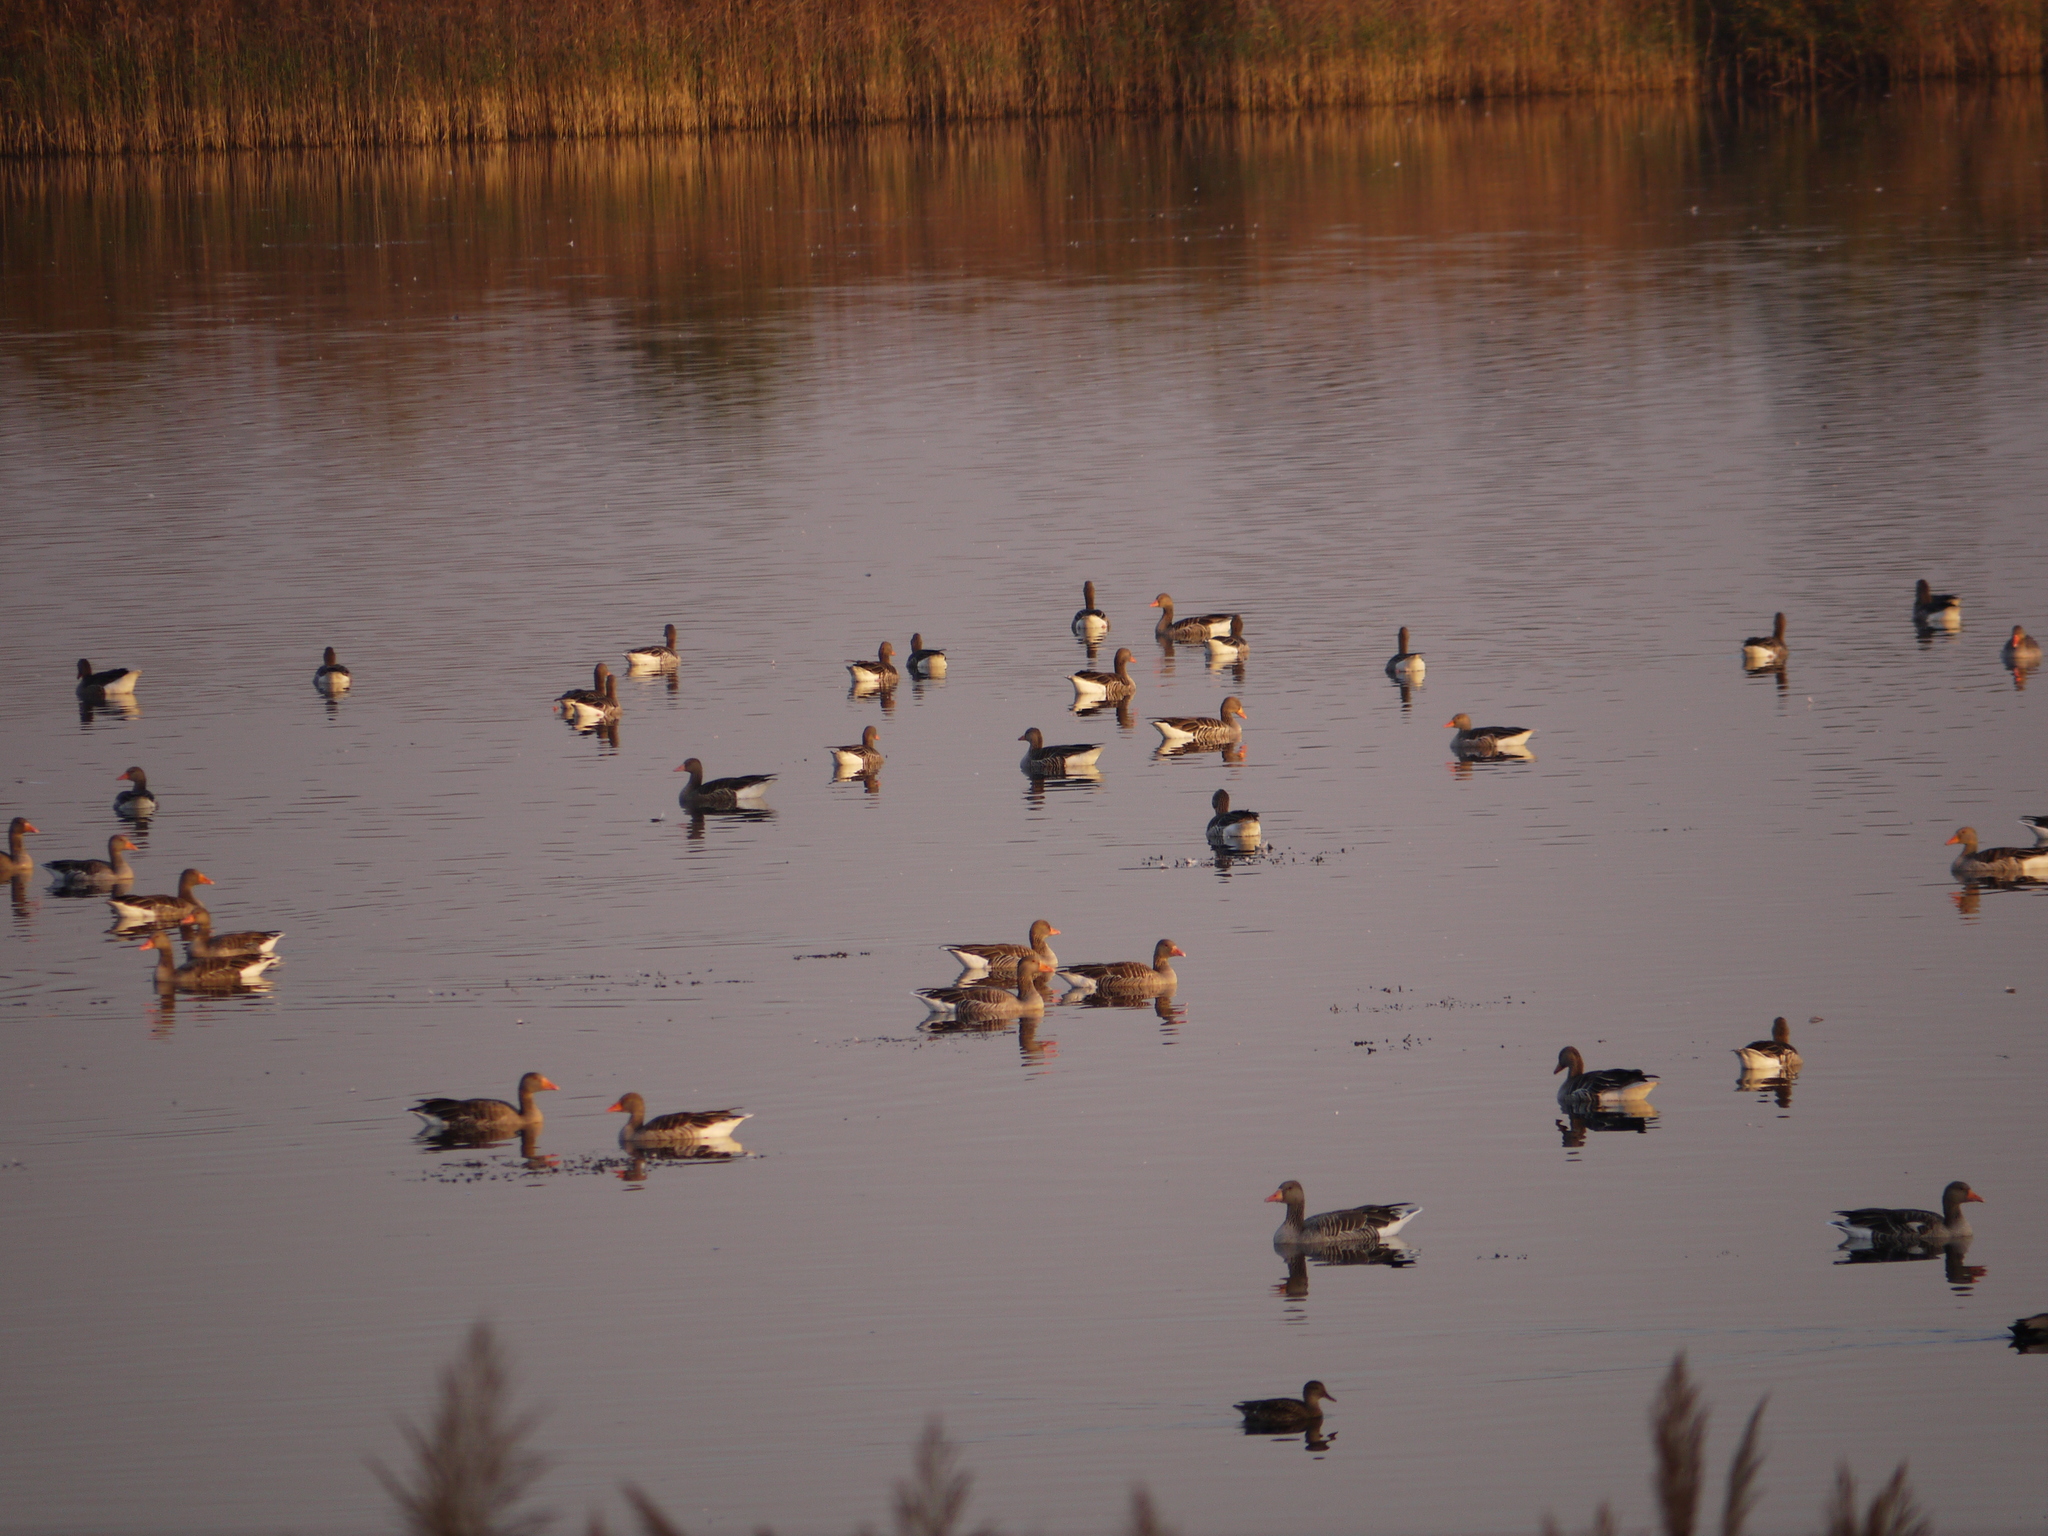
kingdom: Animalia
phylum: Chordata
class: Aves
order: Anseriformes
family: Anatidae
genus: Anser
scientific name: Anser anser
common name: Greylag goose
